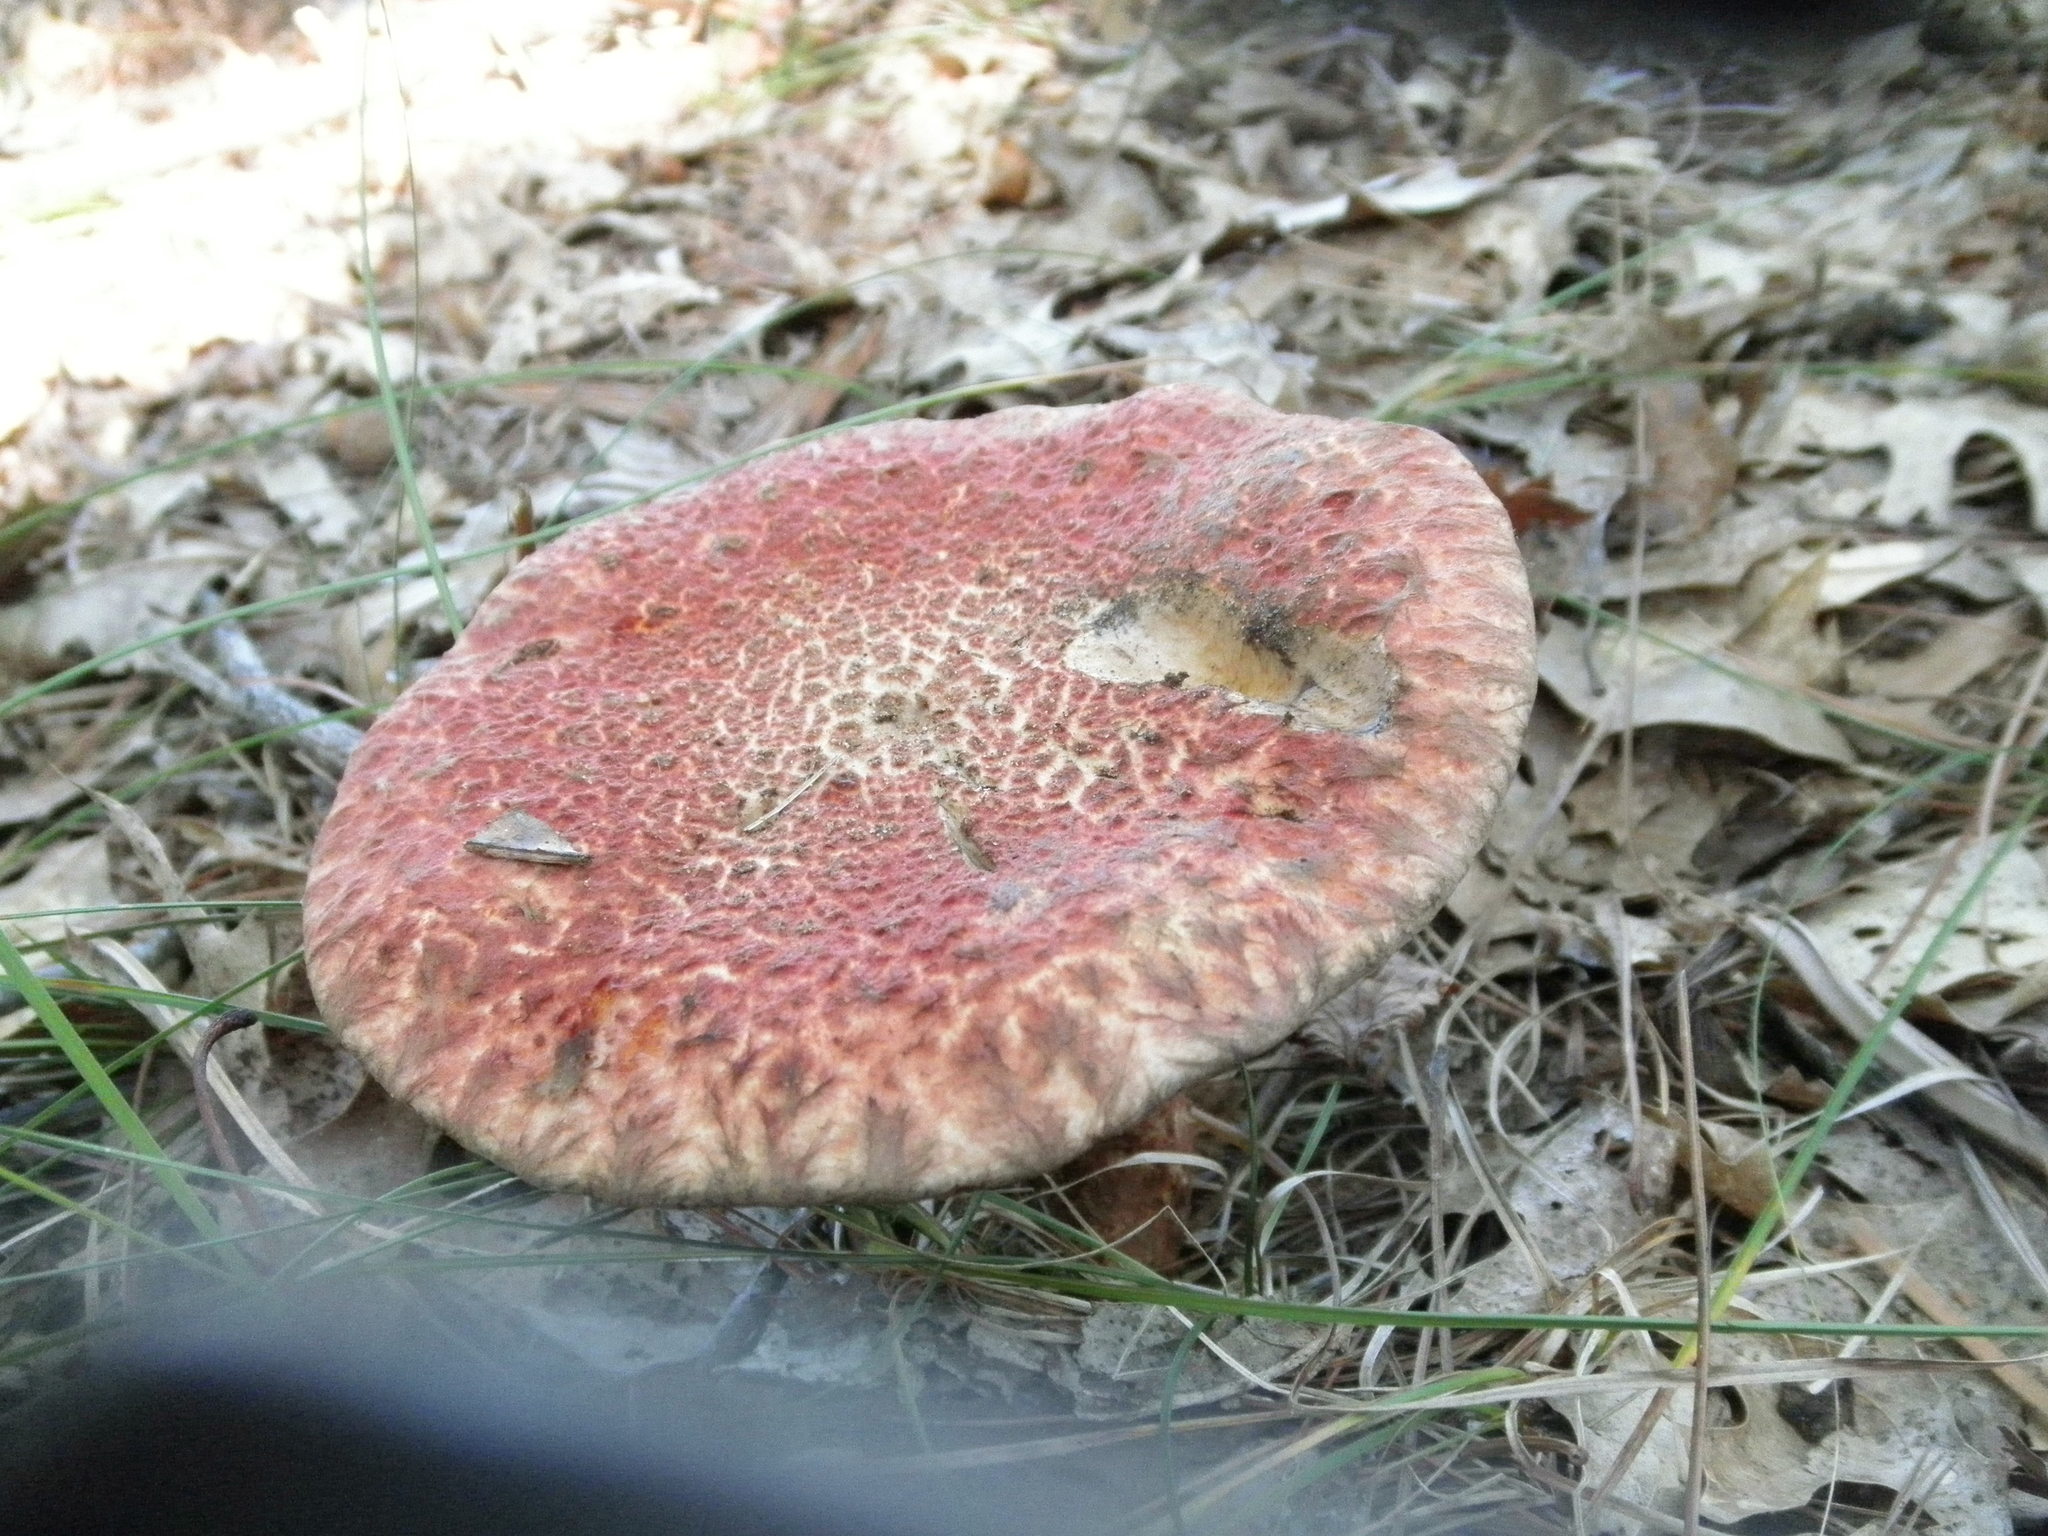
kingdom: Fungi
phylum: Basidiomycota
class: Agaricomycetes
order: Boletales
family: Suillaceae
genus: Suillus
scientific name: Suillus spraguei
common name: Painted suillus
